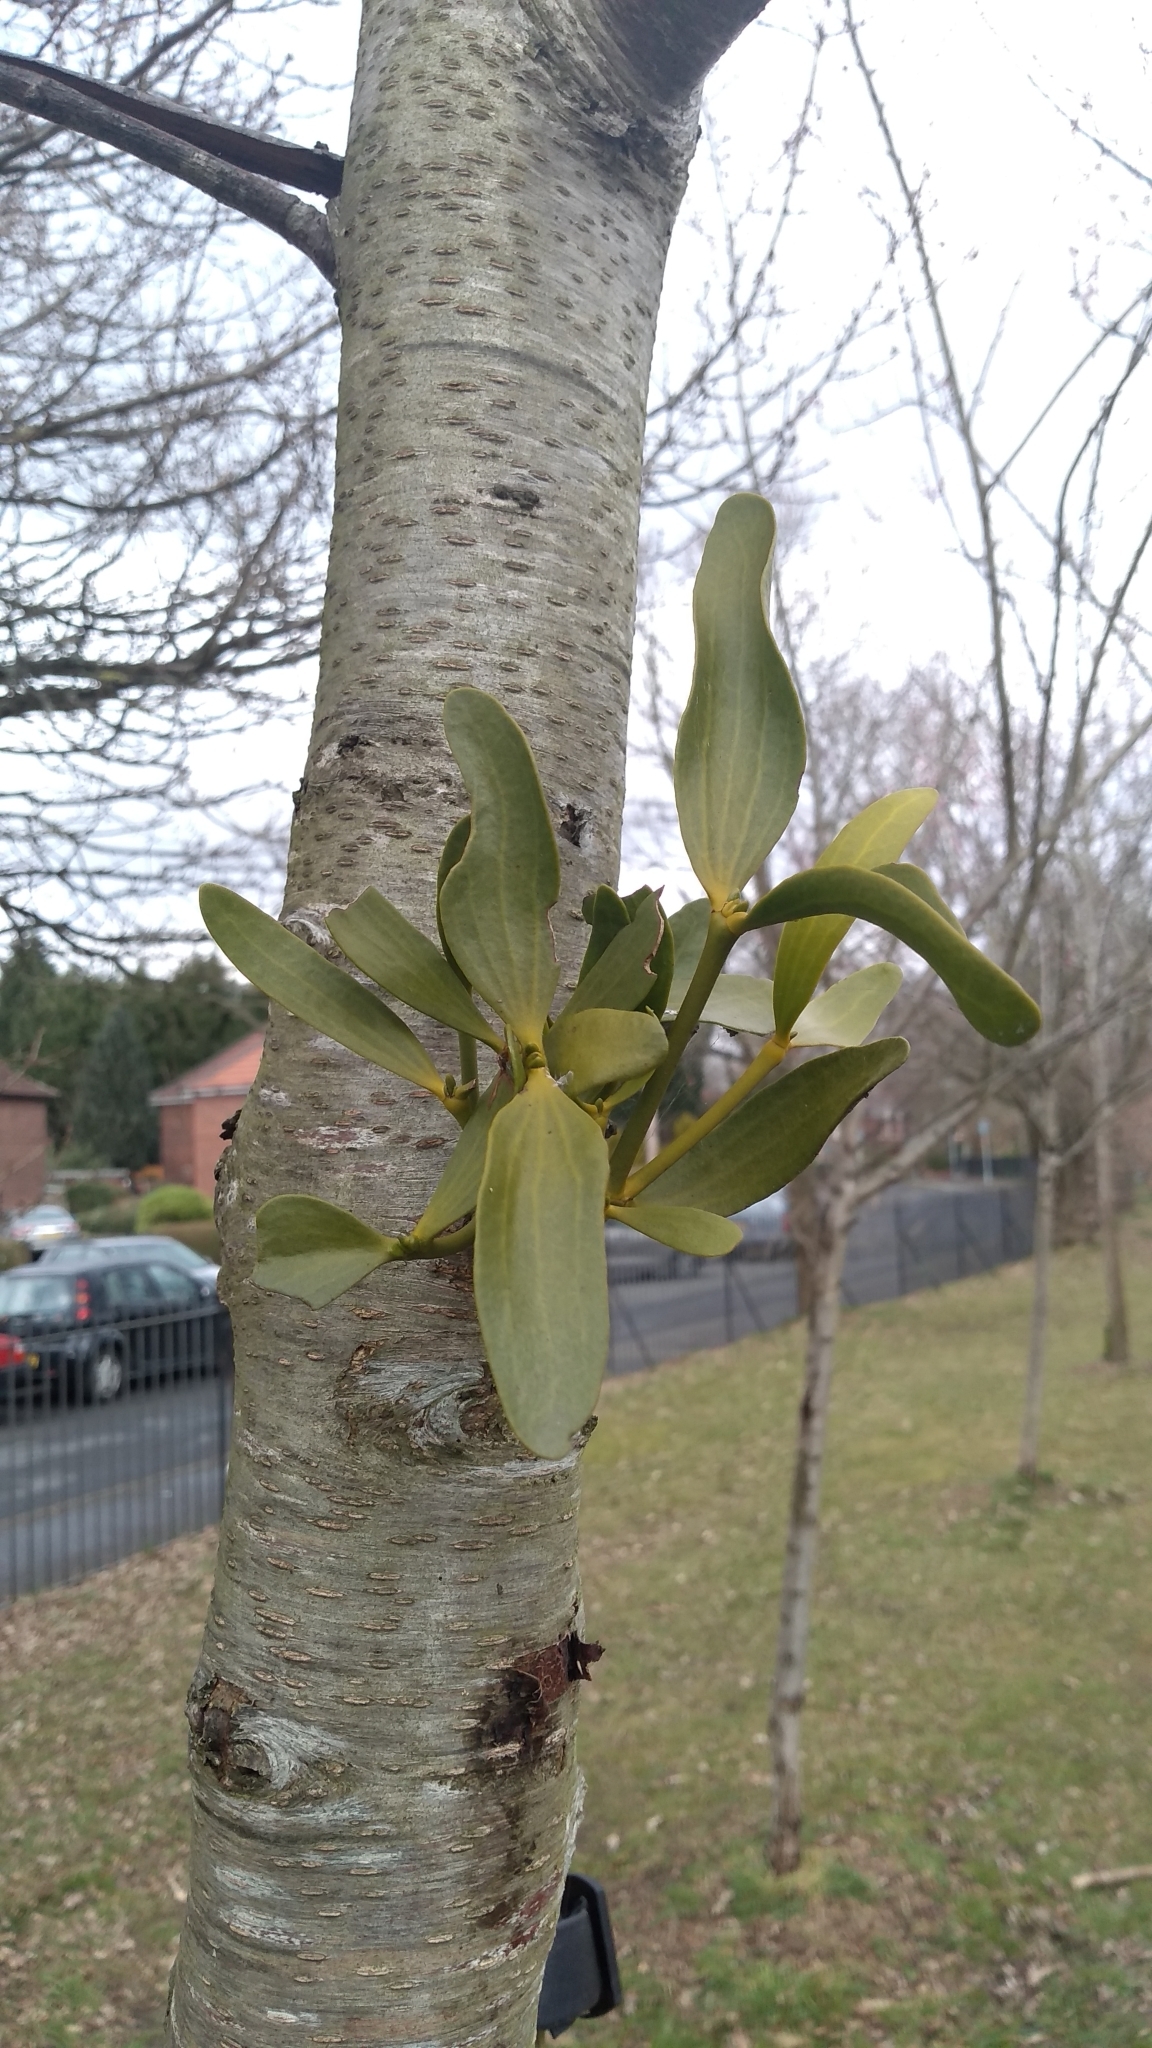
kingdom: Plantae
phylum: Tracheophyta
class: Magnoliopsida
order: Santalales
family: Viscaceae
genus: Viscum
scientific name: Viscum album
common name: Mistletoe
